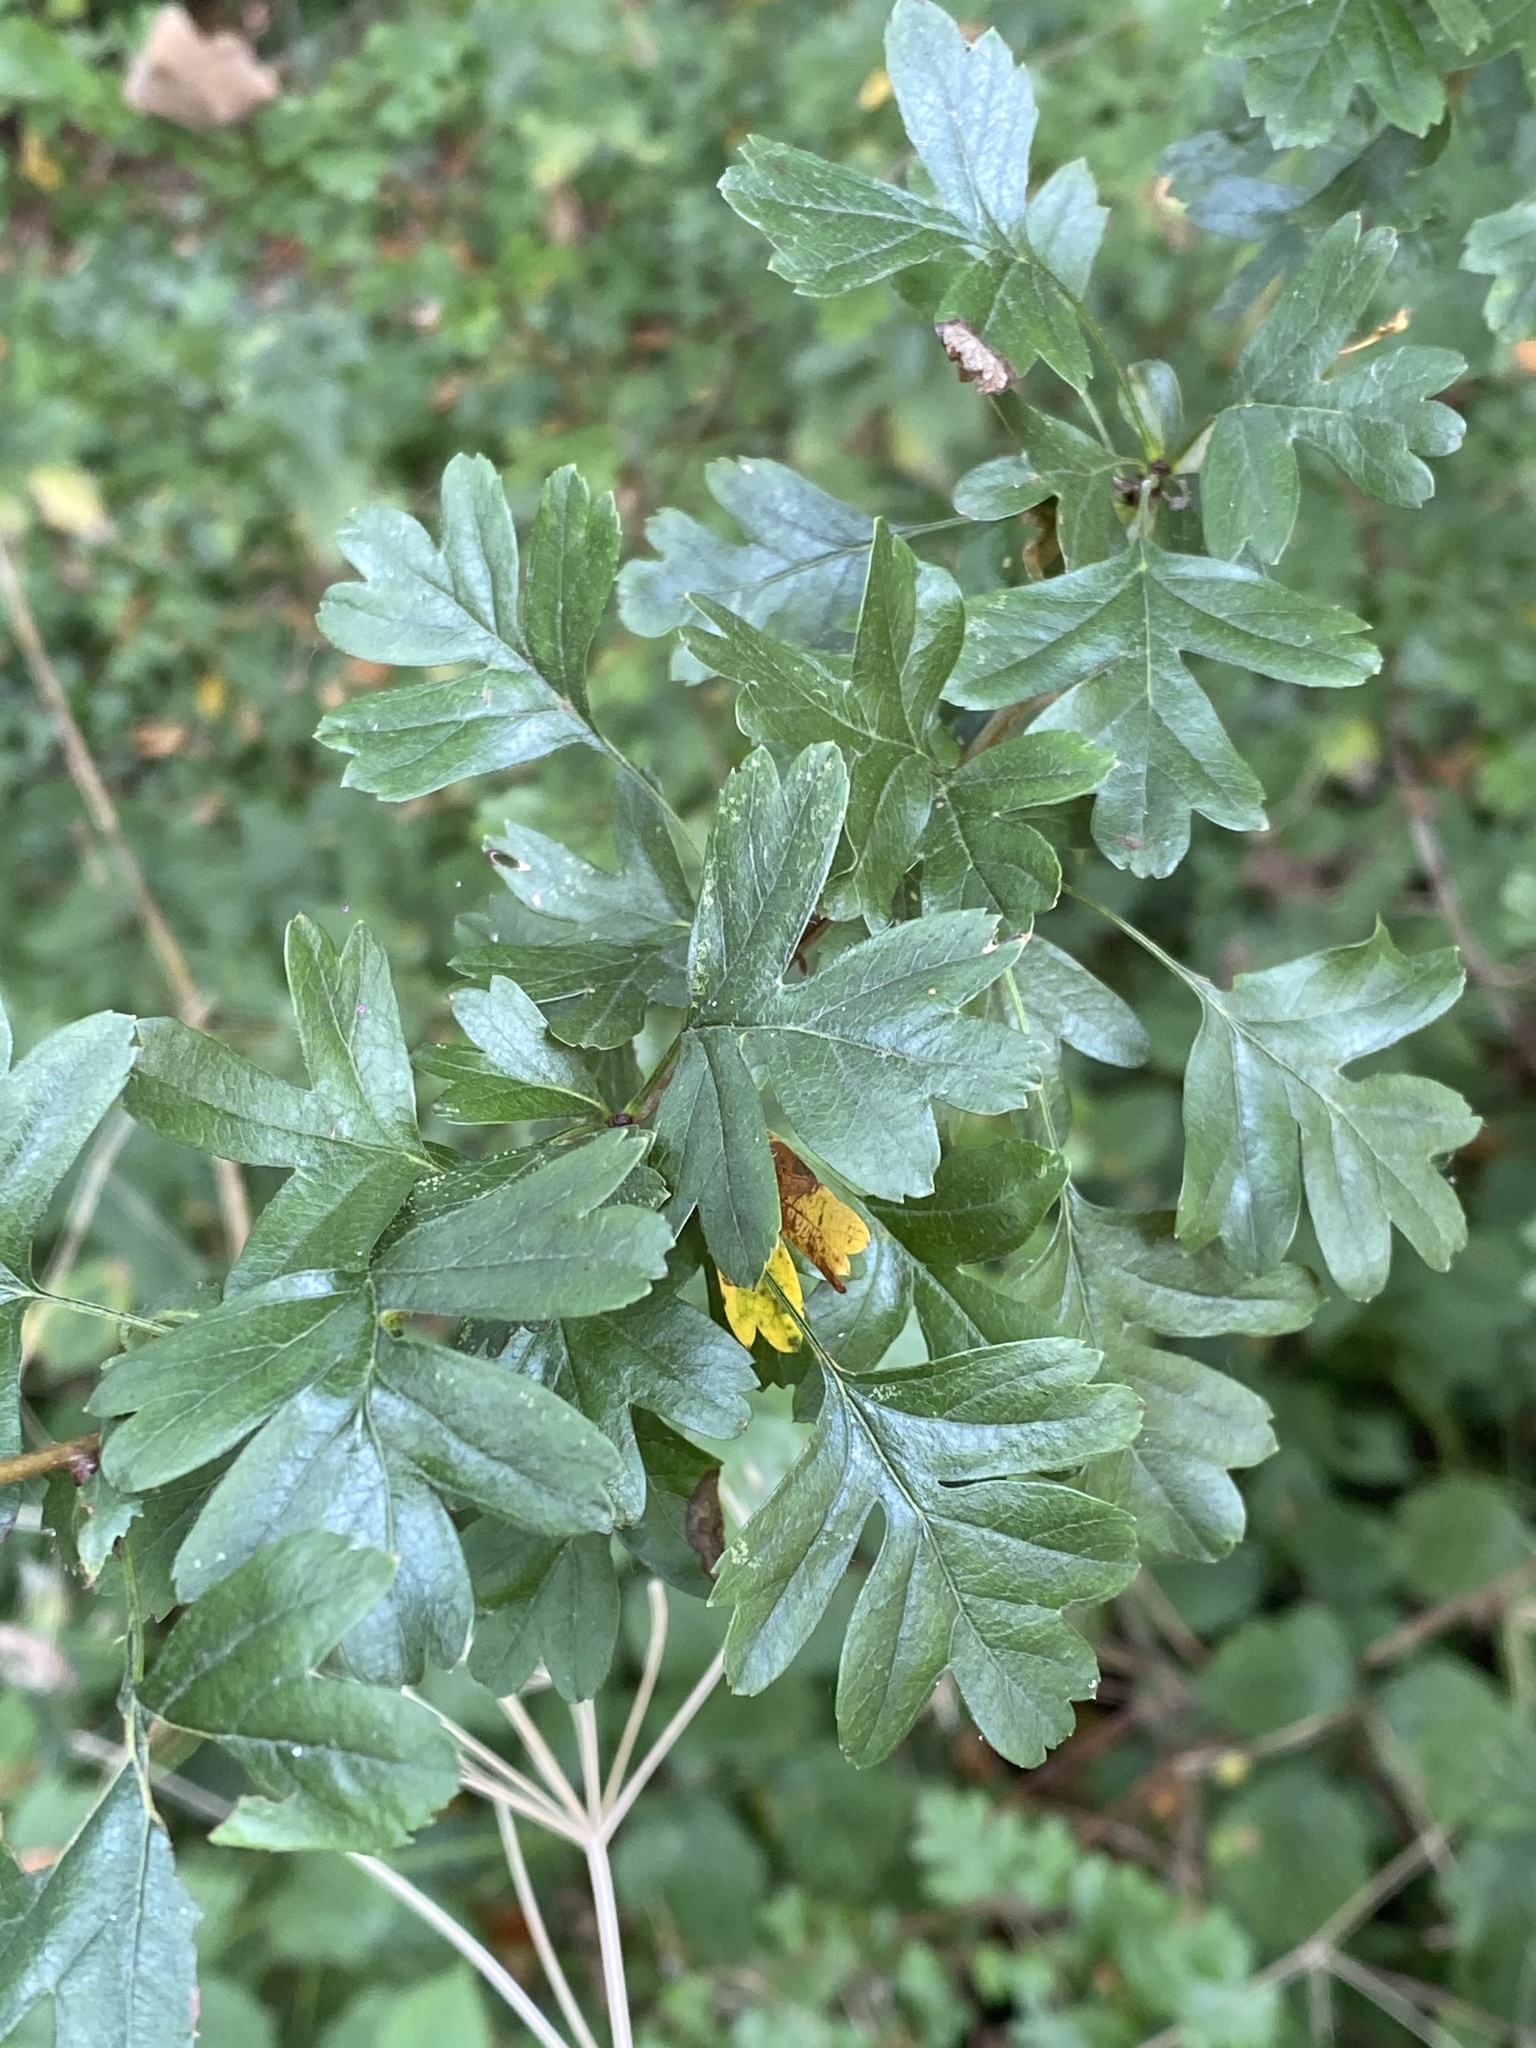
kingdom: Plantae
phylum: Tracheophyta
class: Magnoliopsida
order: Rosales
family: Rosaceae
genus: Crataegus
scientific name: Crataegus monogyna
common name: Hawthorn
